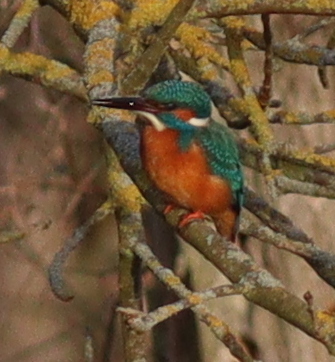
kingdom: Animalia
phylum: Chordata
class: Aves
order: Coraciiformes
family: Alcedinidae
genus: Alcedo
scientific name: Alcedo atthis
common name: Common kingfisher
